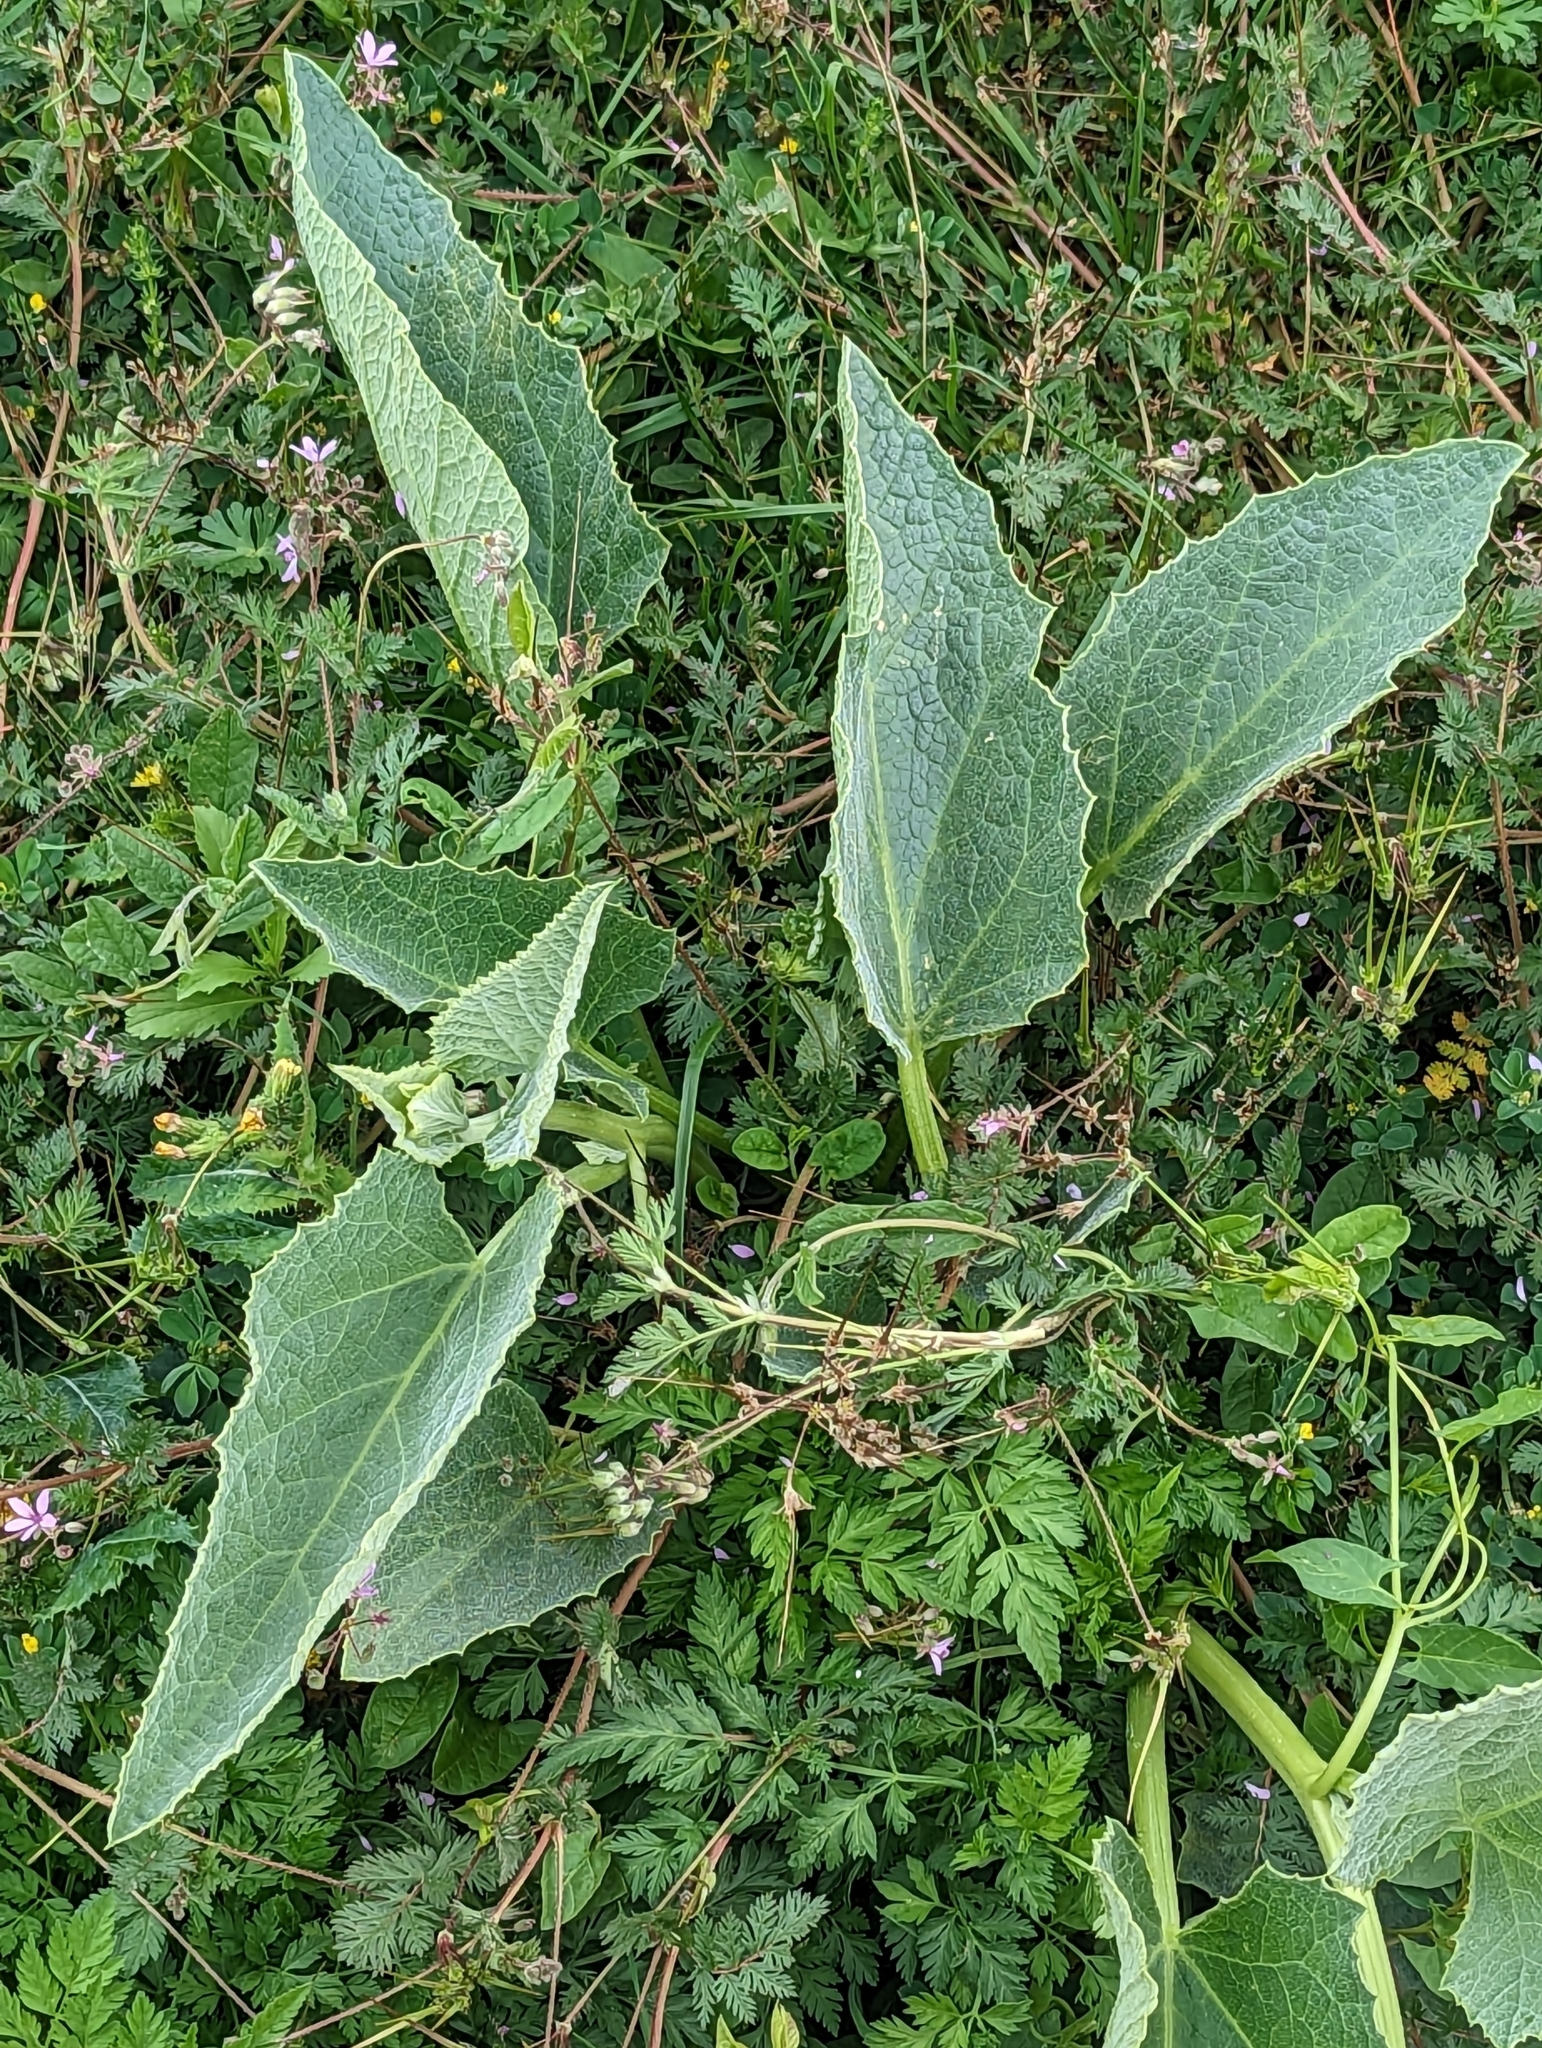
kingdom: Plantae
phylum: Tracheophyta
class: Magnoliopsida
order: Cucurbitales
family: Cucurbitaceae
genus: Cucurbita
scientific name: Cucurbita foetidissima
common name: Buffalo gourd
